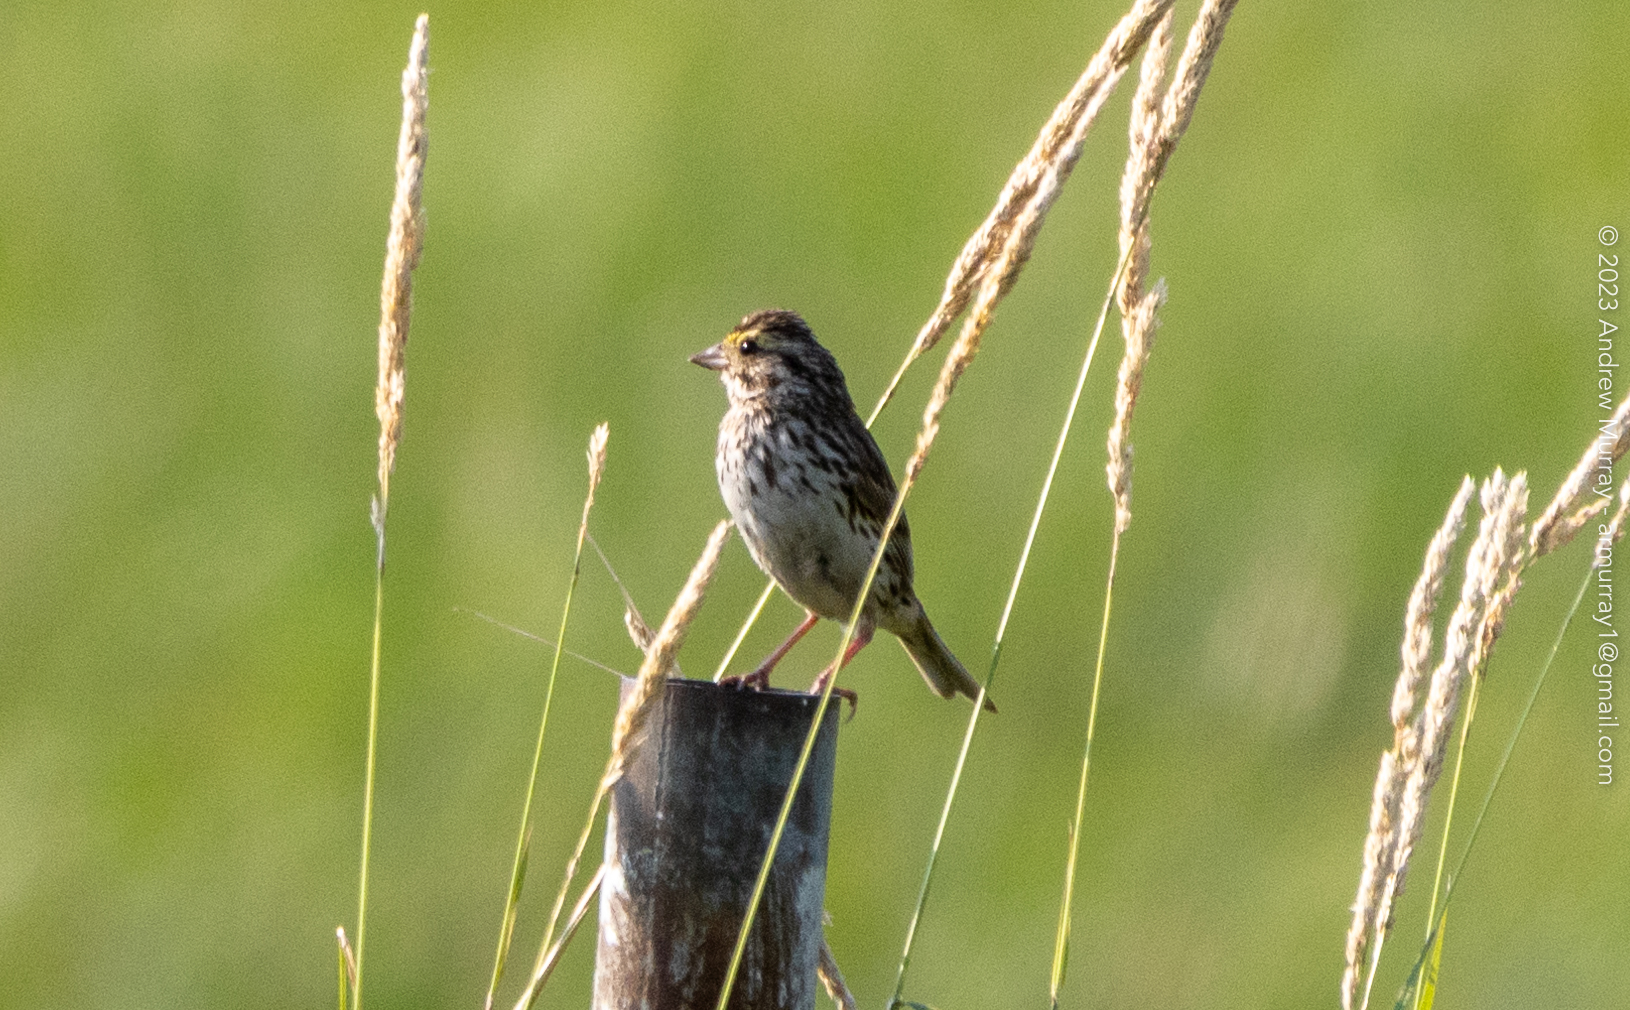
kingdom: Animalia
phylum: Chordata
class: Aves
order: Passeriformes
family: Passerellidae
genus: Passerculus
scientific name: Passerculus sandwichensis
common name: Savannah sparrow
